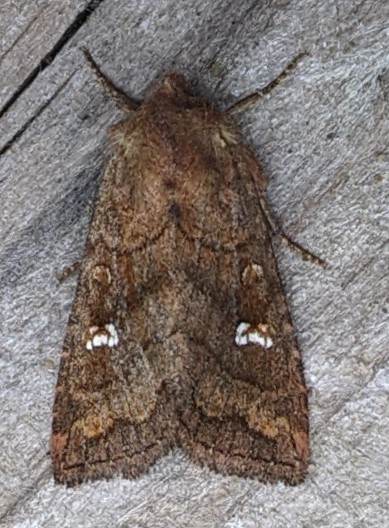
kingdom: Animalia
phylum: Arthropoda
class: Insecta
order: Lepidoptera
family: Noctuidae
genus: Tricholita
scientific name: Tricholita signata
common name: Signate quaker
